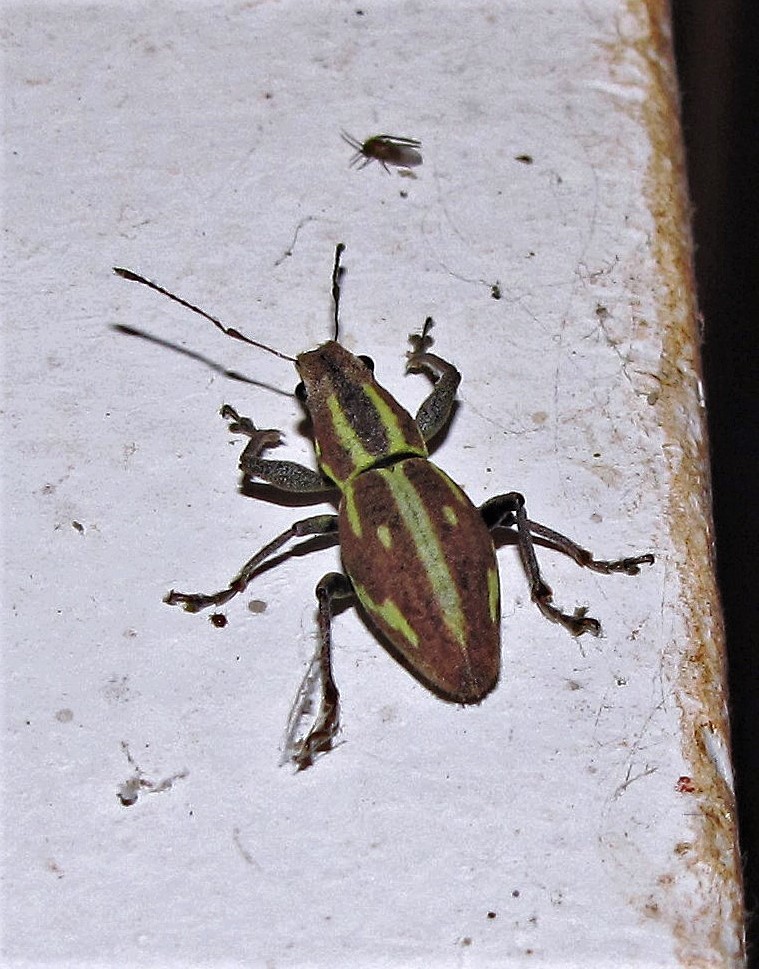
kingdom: Animalia
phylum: Arthropoda
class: Insecta
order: Coleoptera
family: Curculionidae
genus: Naupactus
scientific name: Naupactus dissimilis
